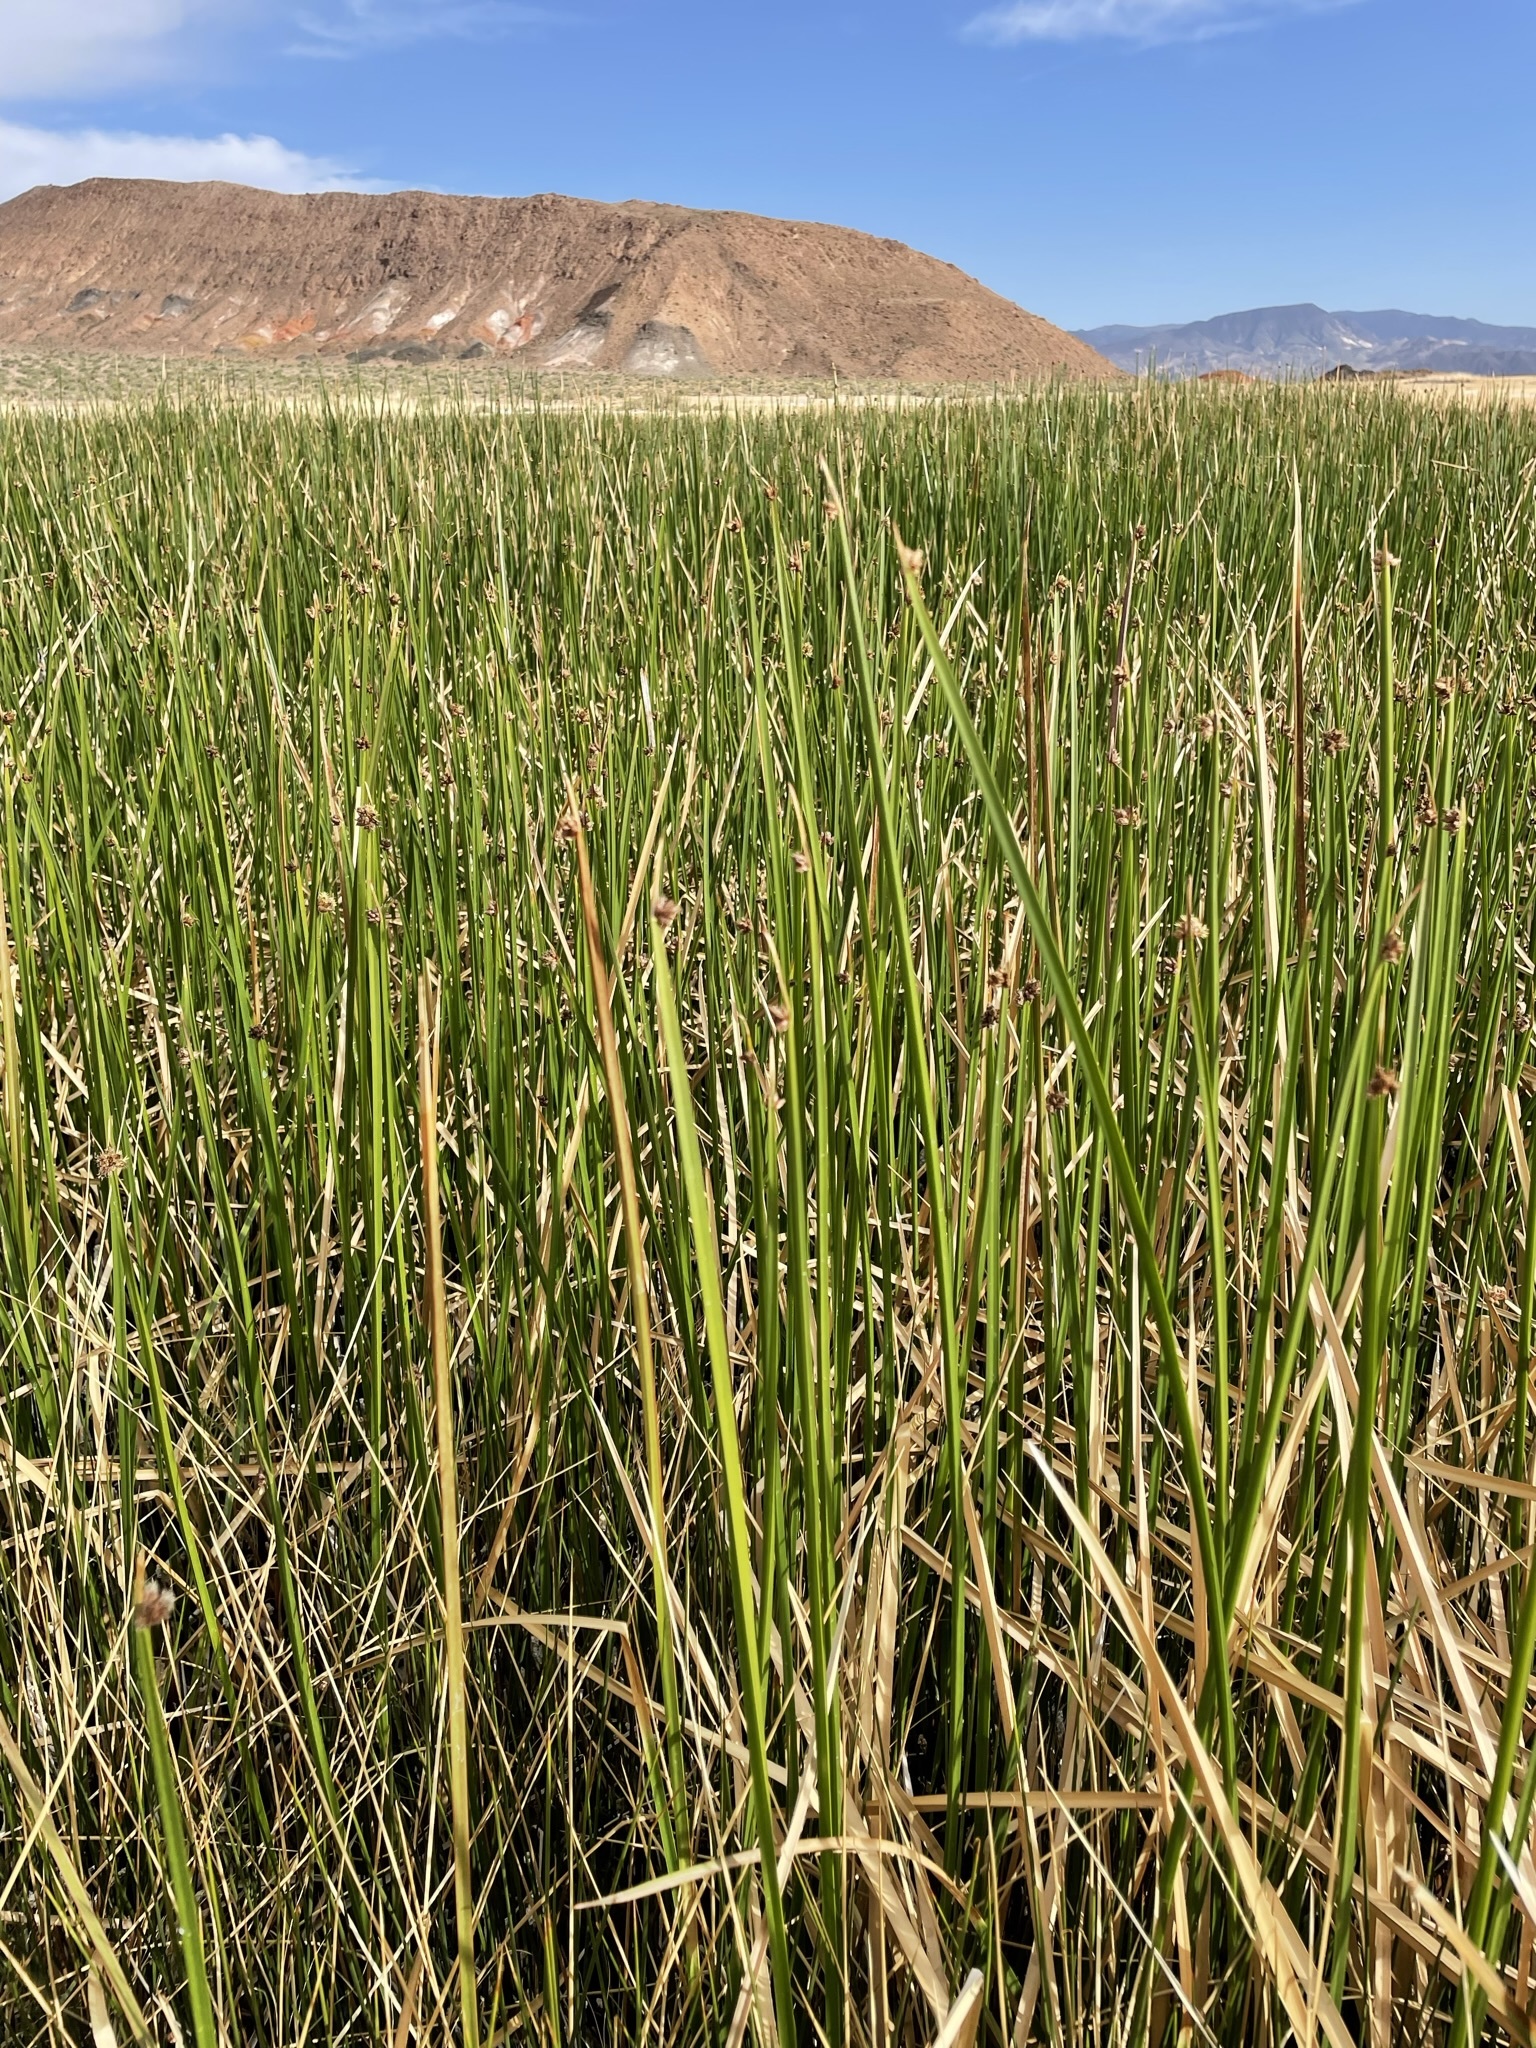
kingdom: Plantae
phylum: Tracheophyta
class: Liliopsida
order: Poales
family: Cyperaceae
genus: Schoenoplectus
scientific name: Schoenoplectus americanus
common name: American three-square bulrush
